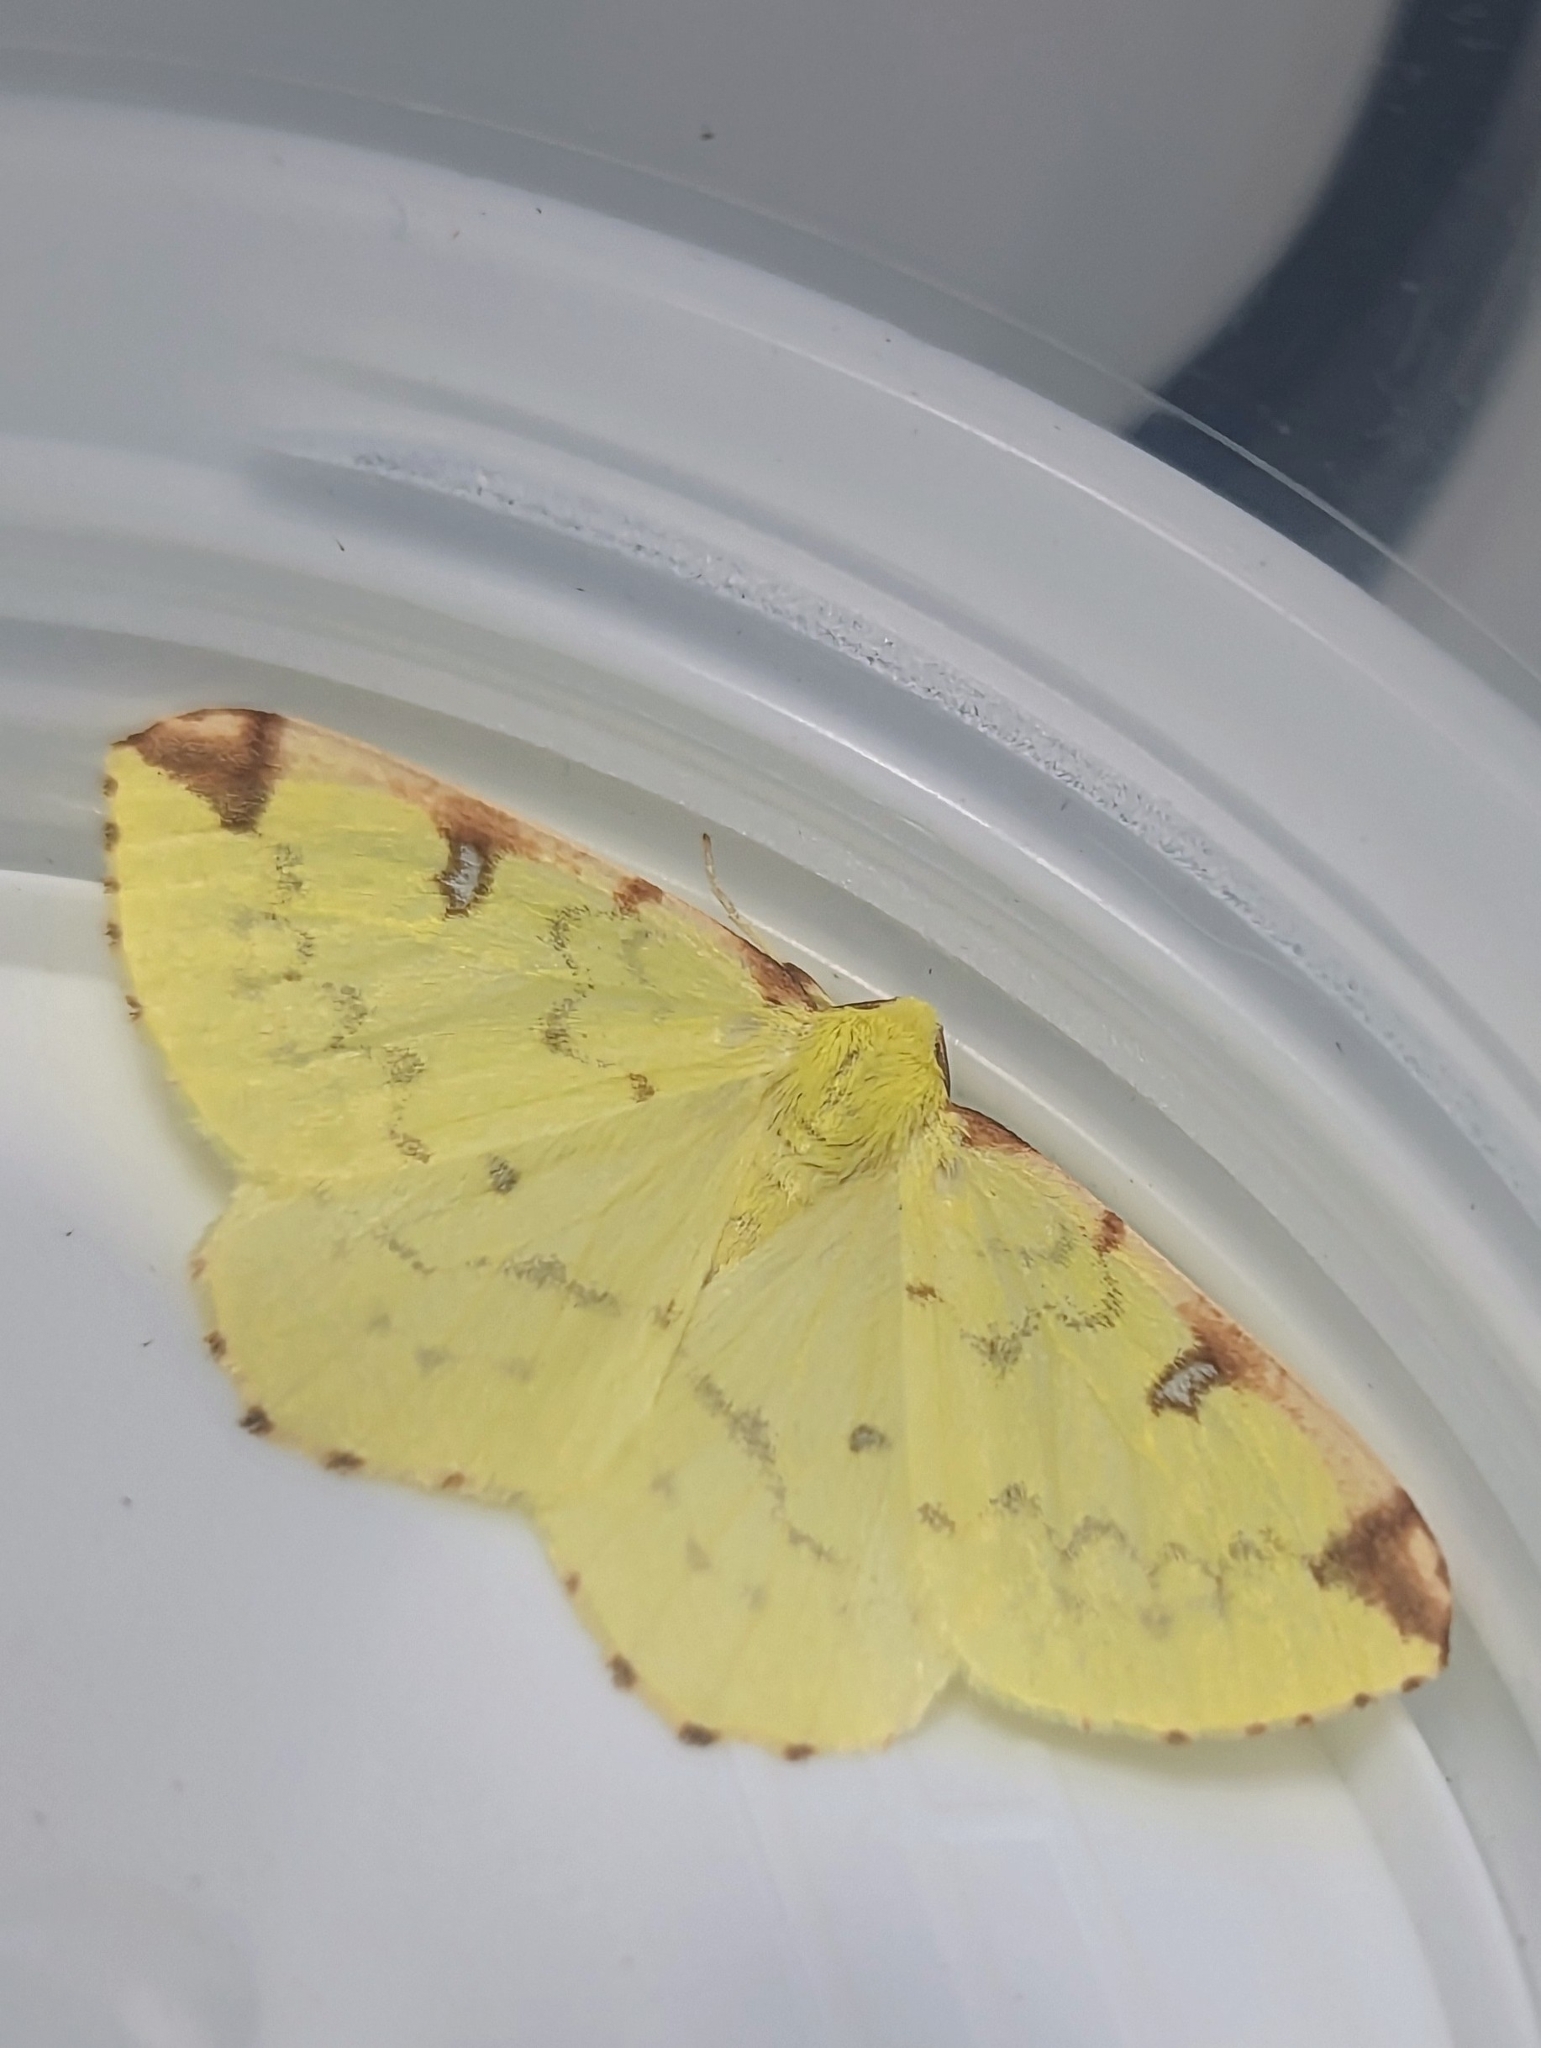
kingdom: Animalia
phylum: Arthropoda
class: Insecta
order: Lepidoptera
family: Geometridae
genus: Opisthograptis
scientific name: Opisthograptis luteolata
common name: Brimstone moth
